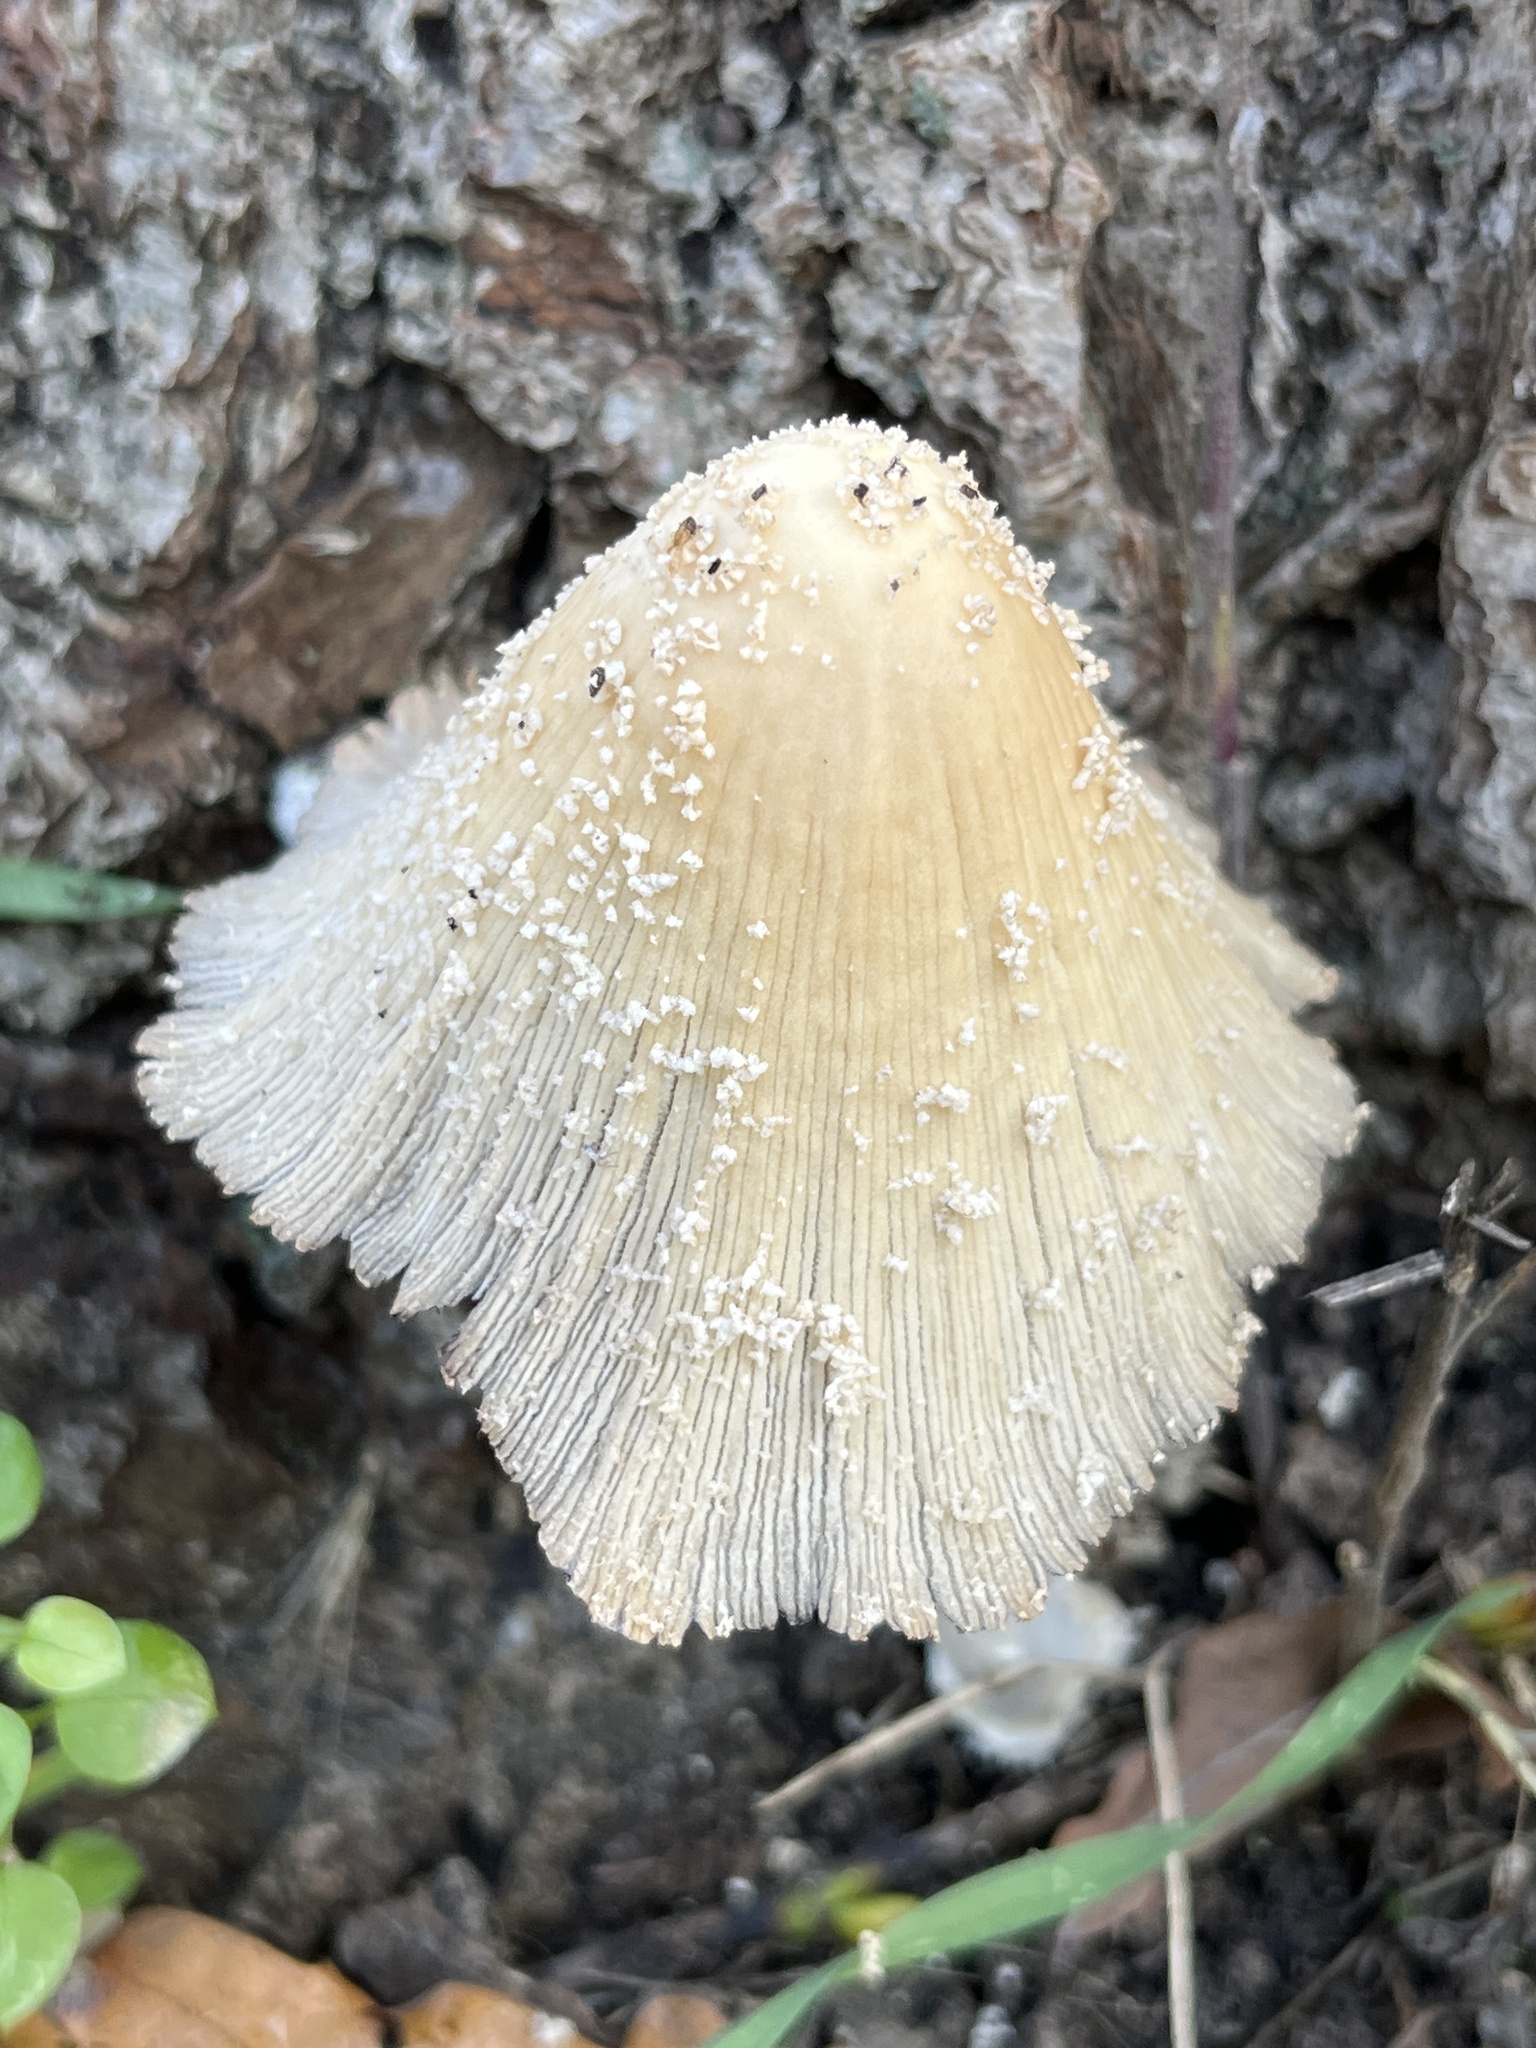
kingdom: Fungi
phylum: Basidiomycota
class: Agaricomycetes
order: Agaricales
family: Psathyrellaceae
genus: Coprinellus
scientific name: Coprinellus flocculosus
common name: Flocculose inkcap
